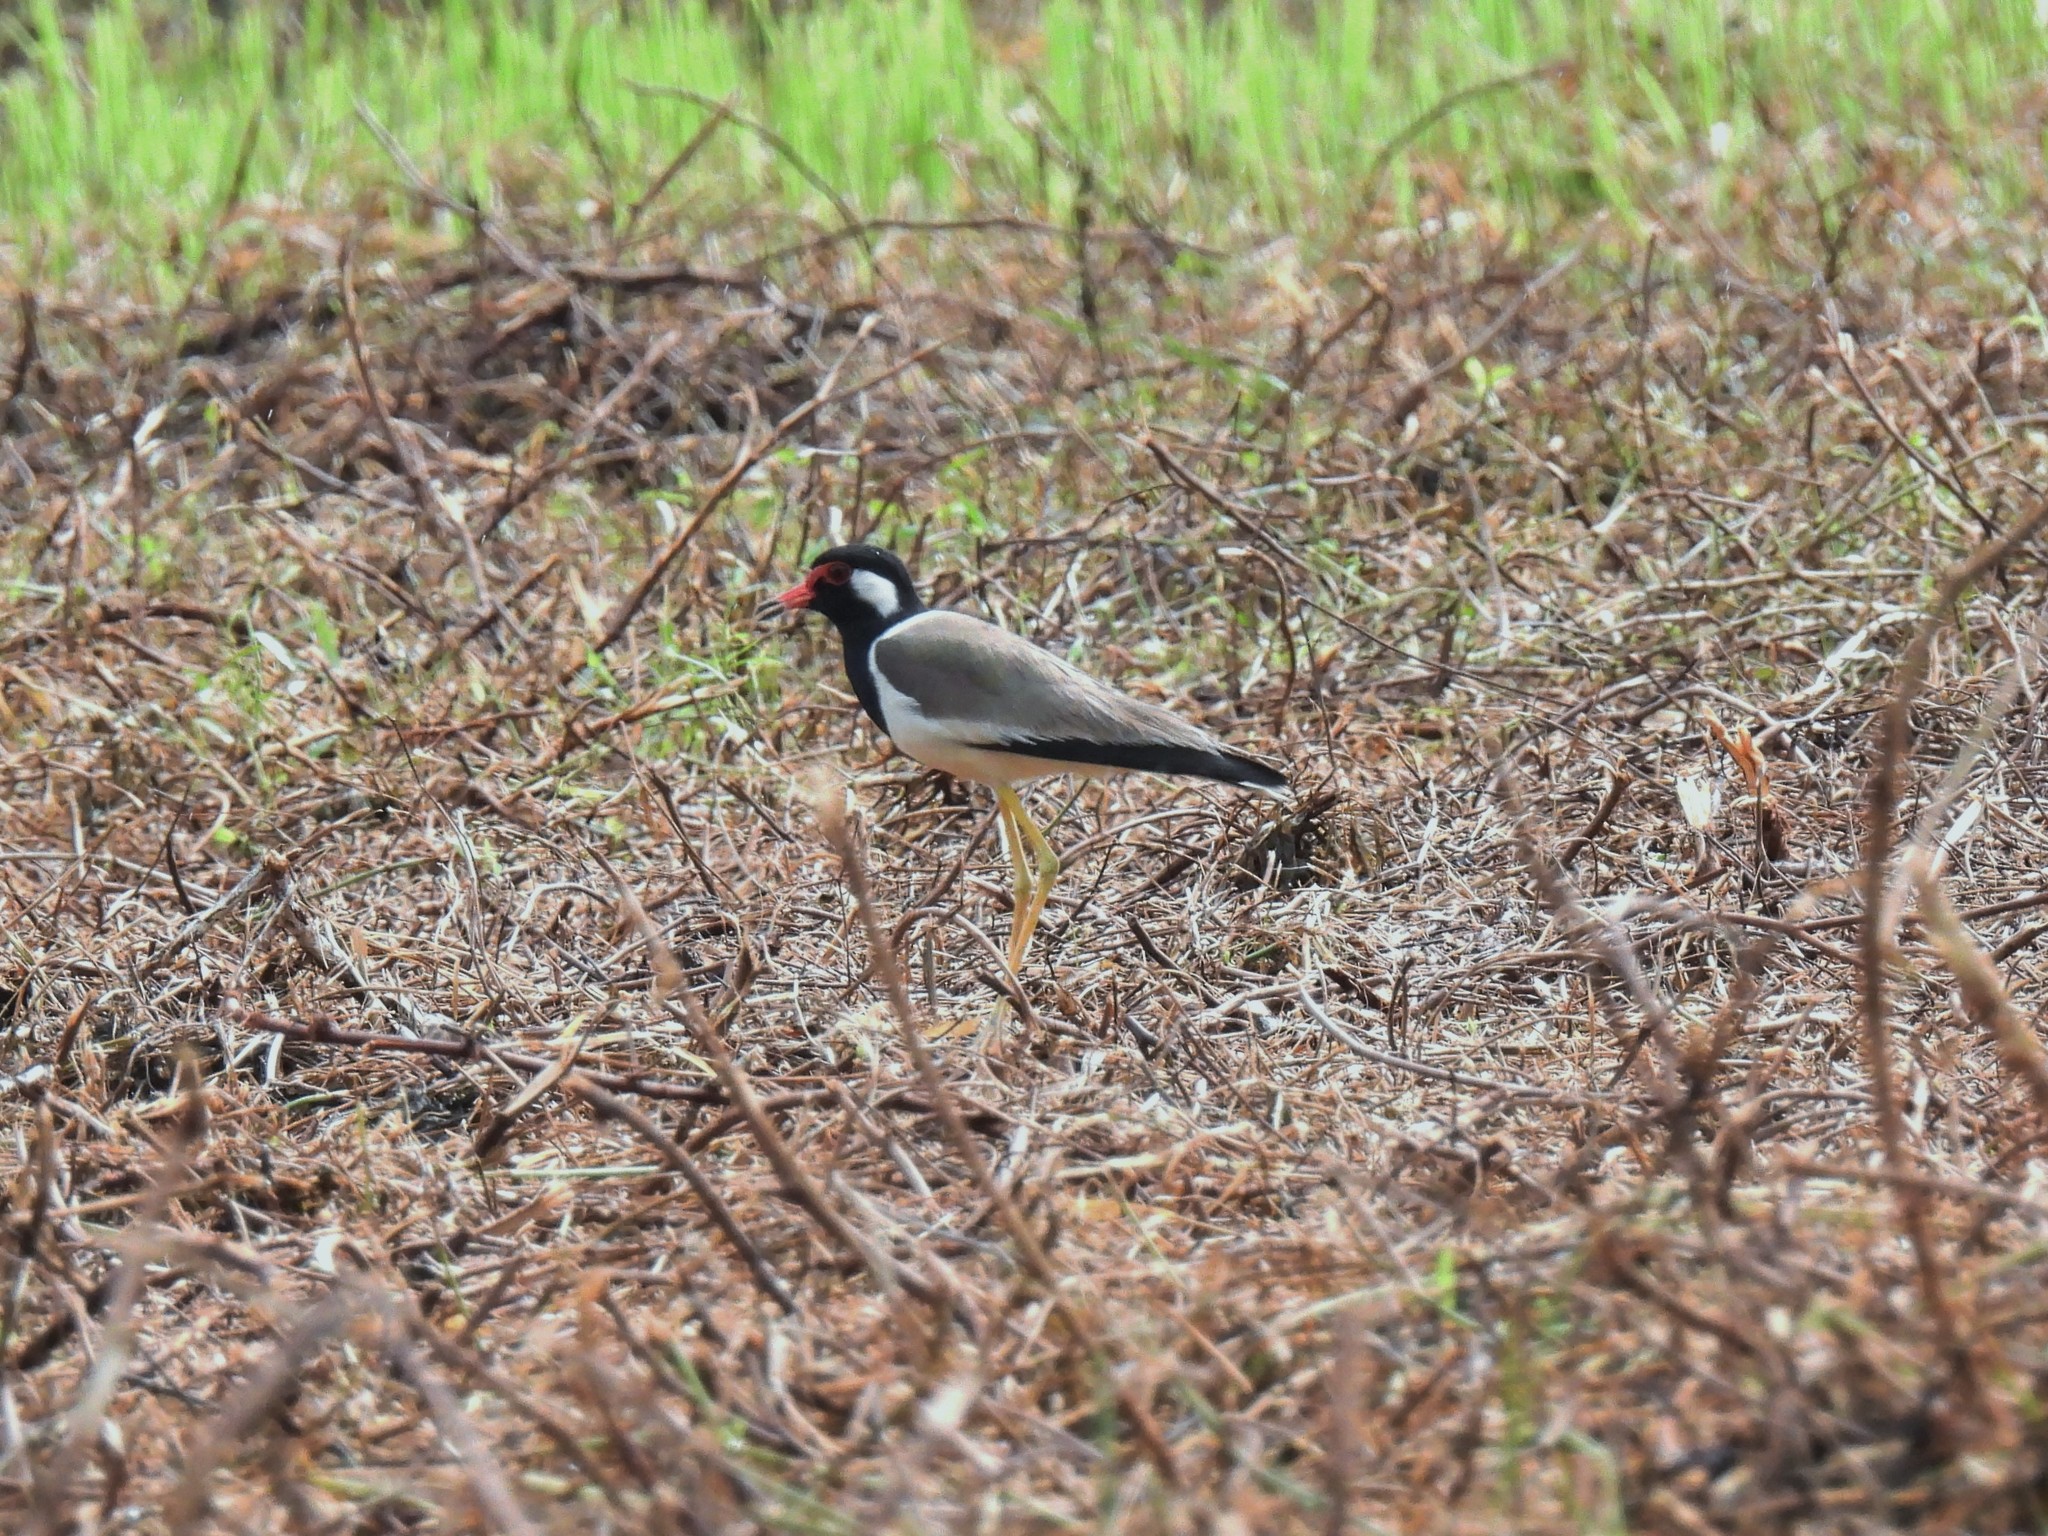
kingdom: Animalia
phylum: Chordata
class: Aves
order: Charadriiformes
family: Charadriidae
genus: Vanellus
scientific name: Vanellus indicus
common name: Red-wattled lapwing
